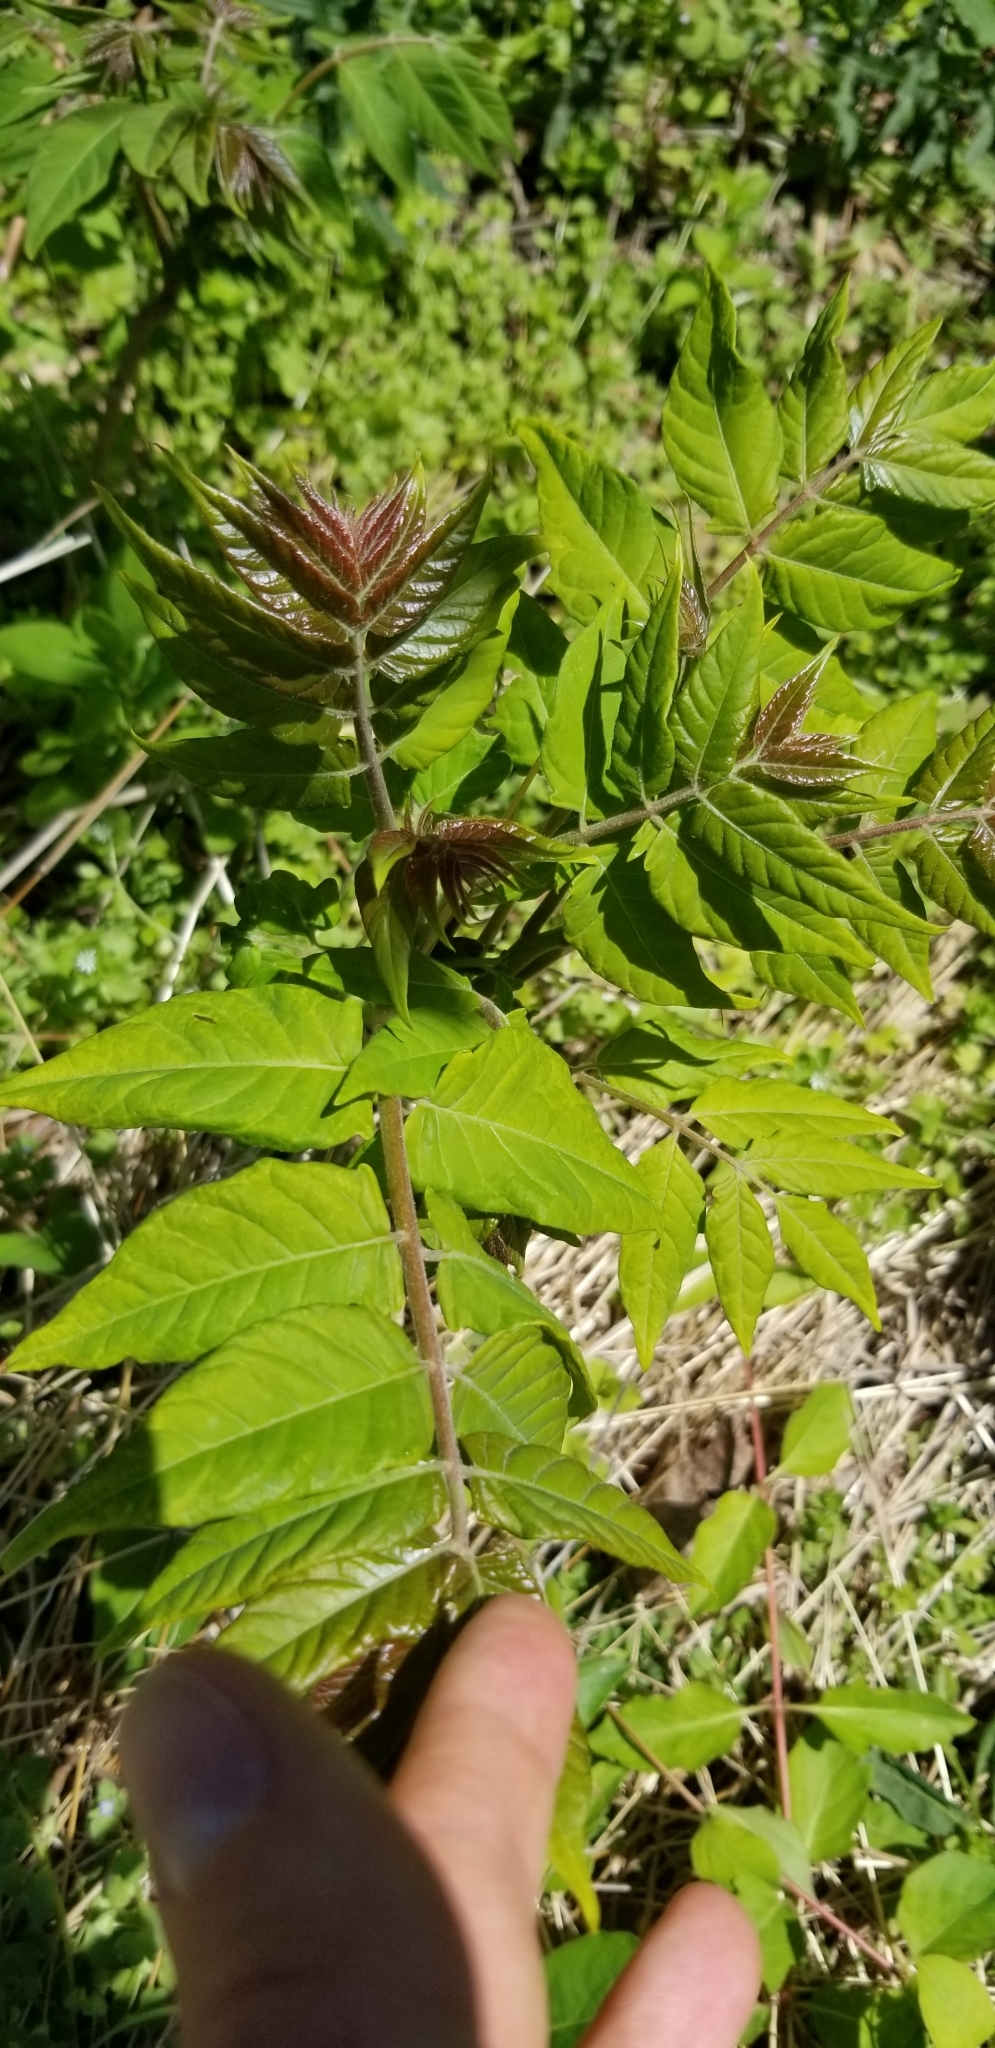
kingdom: Plantae
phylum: Tracheophyta
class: Magnoliopsida
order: Sapindales
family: Simaroubaceae
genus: Ailanthus
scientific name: Ailanthus altissima
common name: Tree-of-heaven
